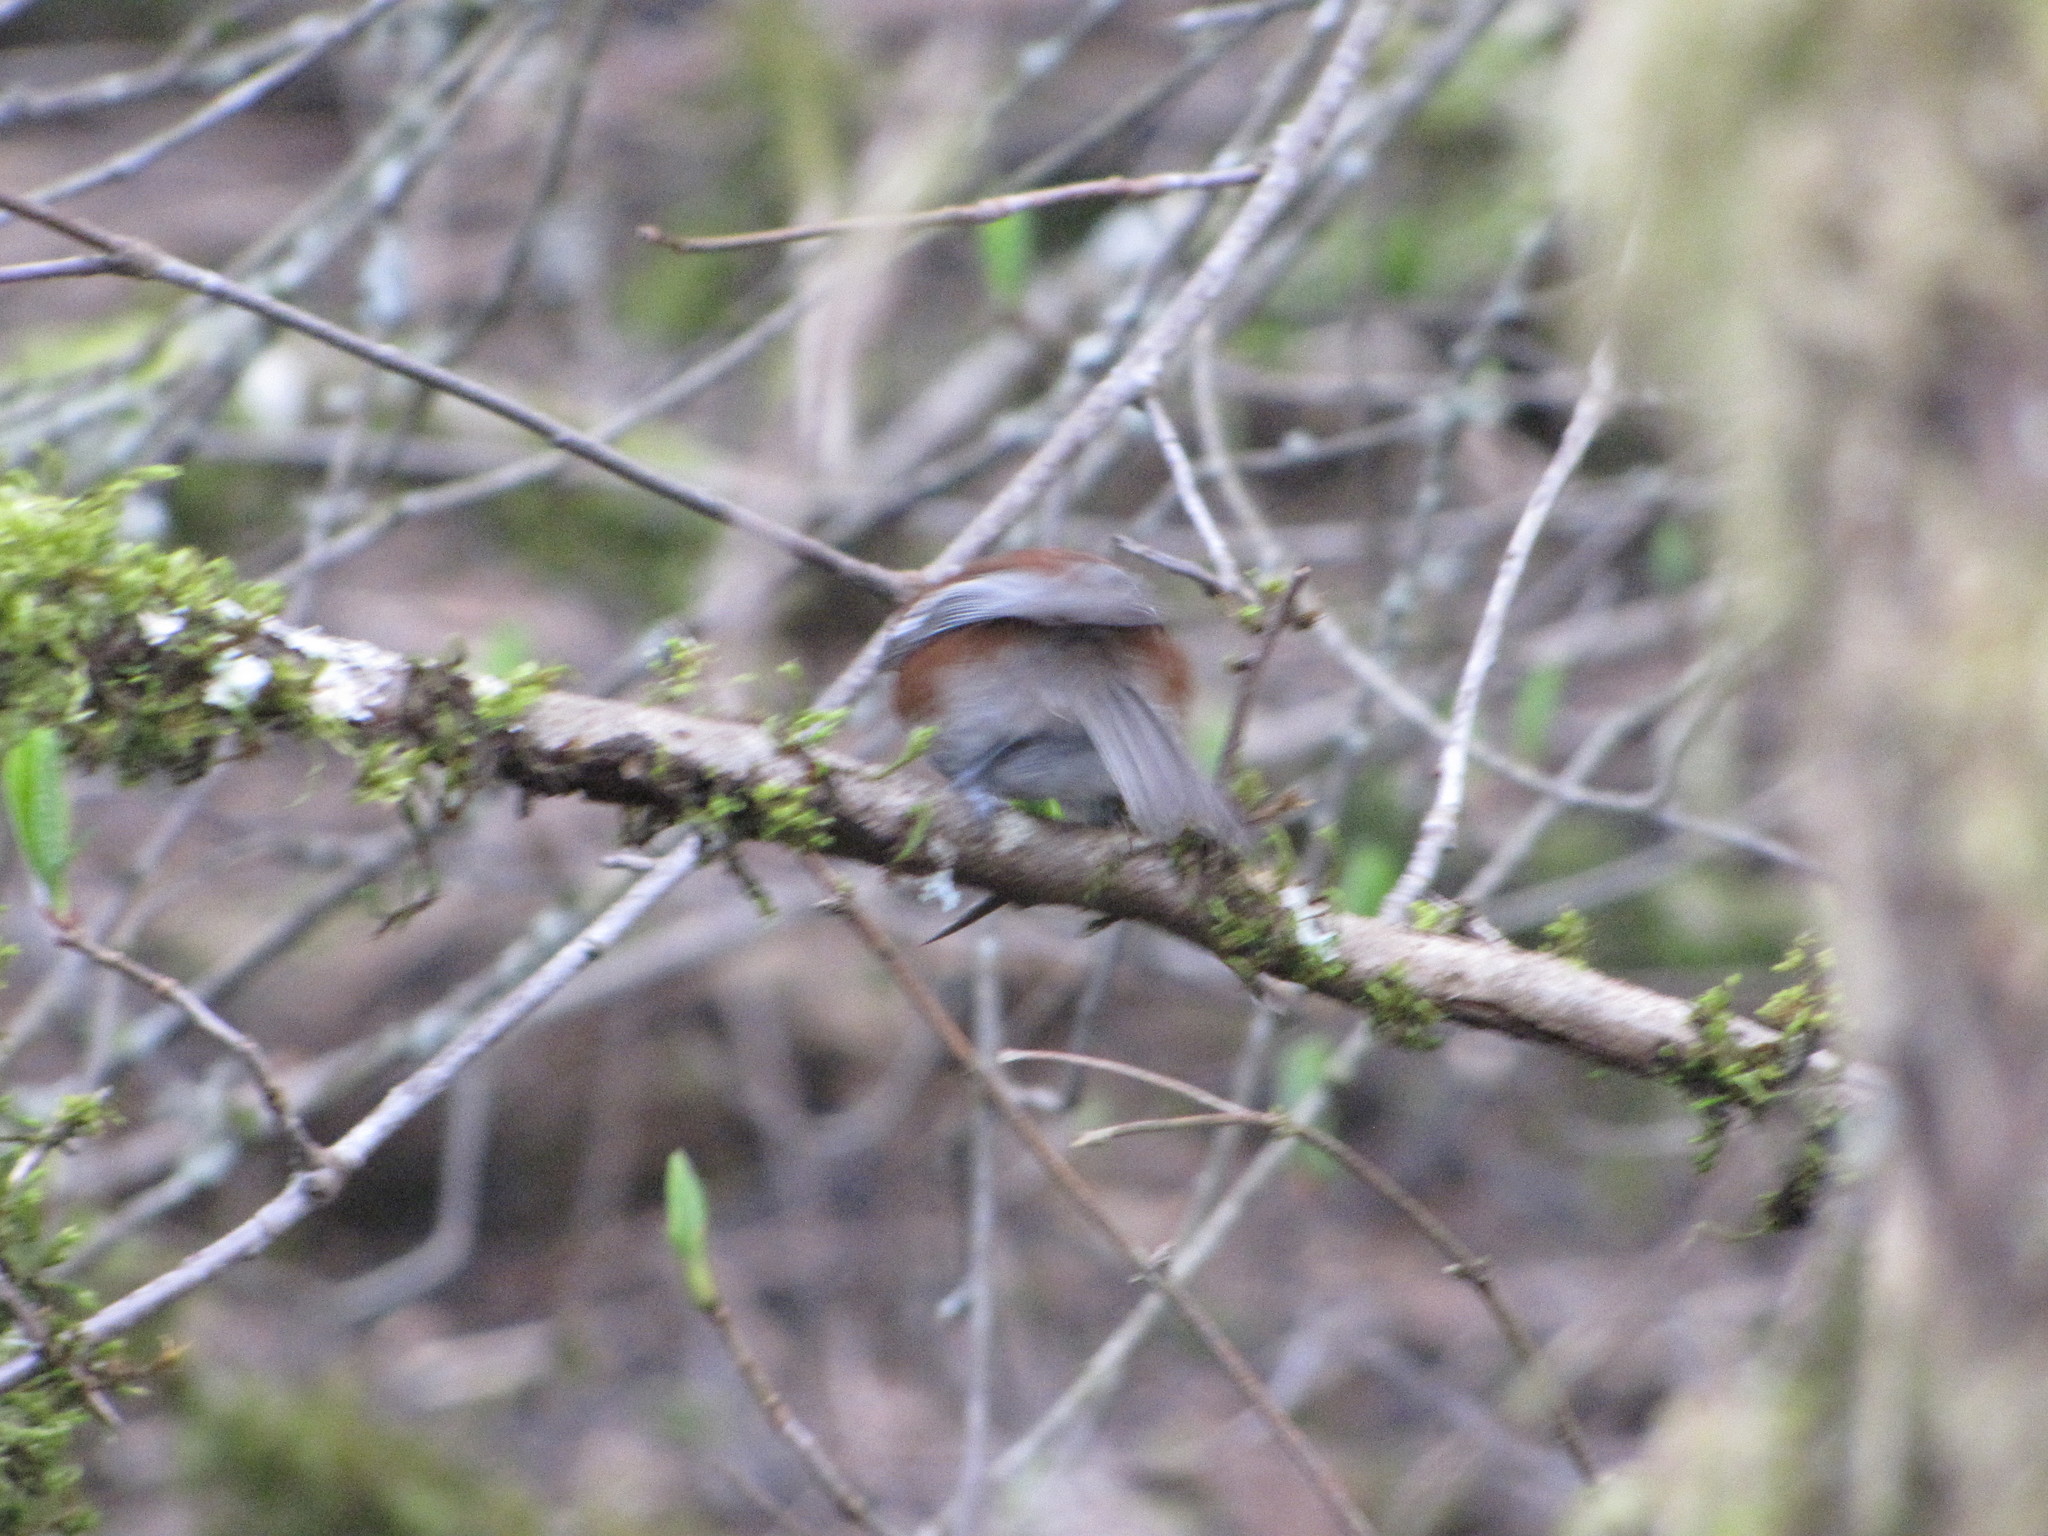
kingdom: Animalia
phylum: Chordata
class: Aves
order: Passeriformes
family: Paridae
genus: Poecile
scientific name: Poecile rufescens
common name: Chestnut-backed chickadee
